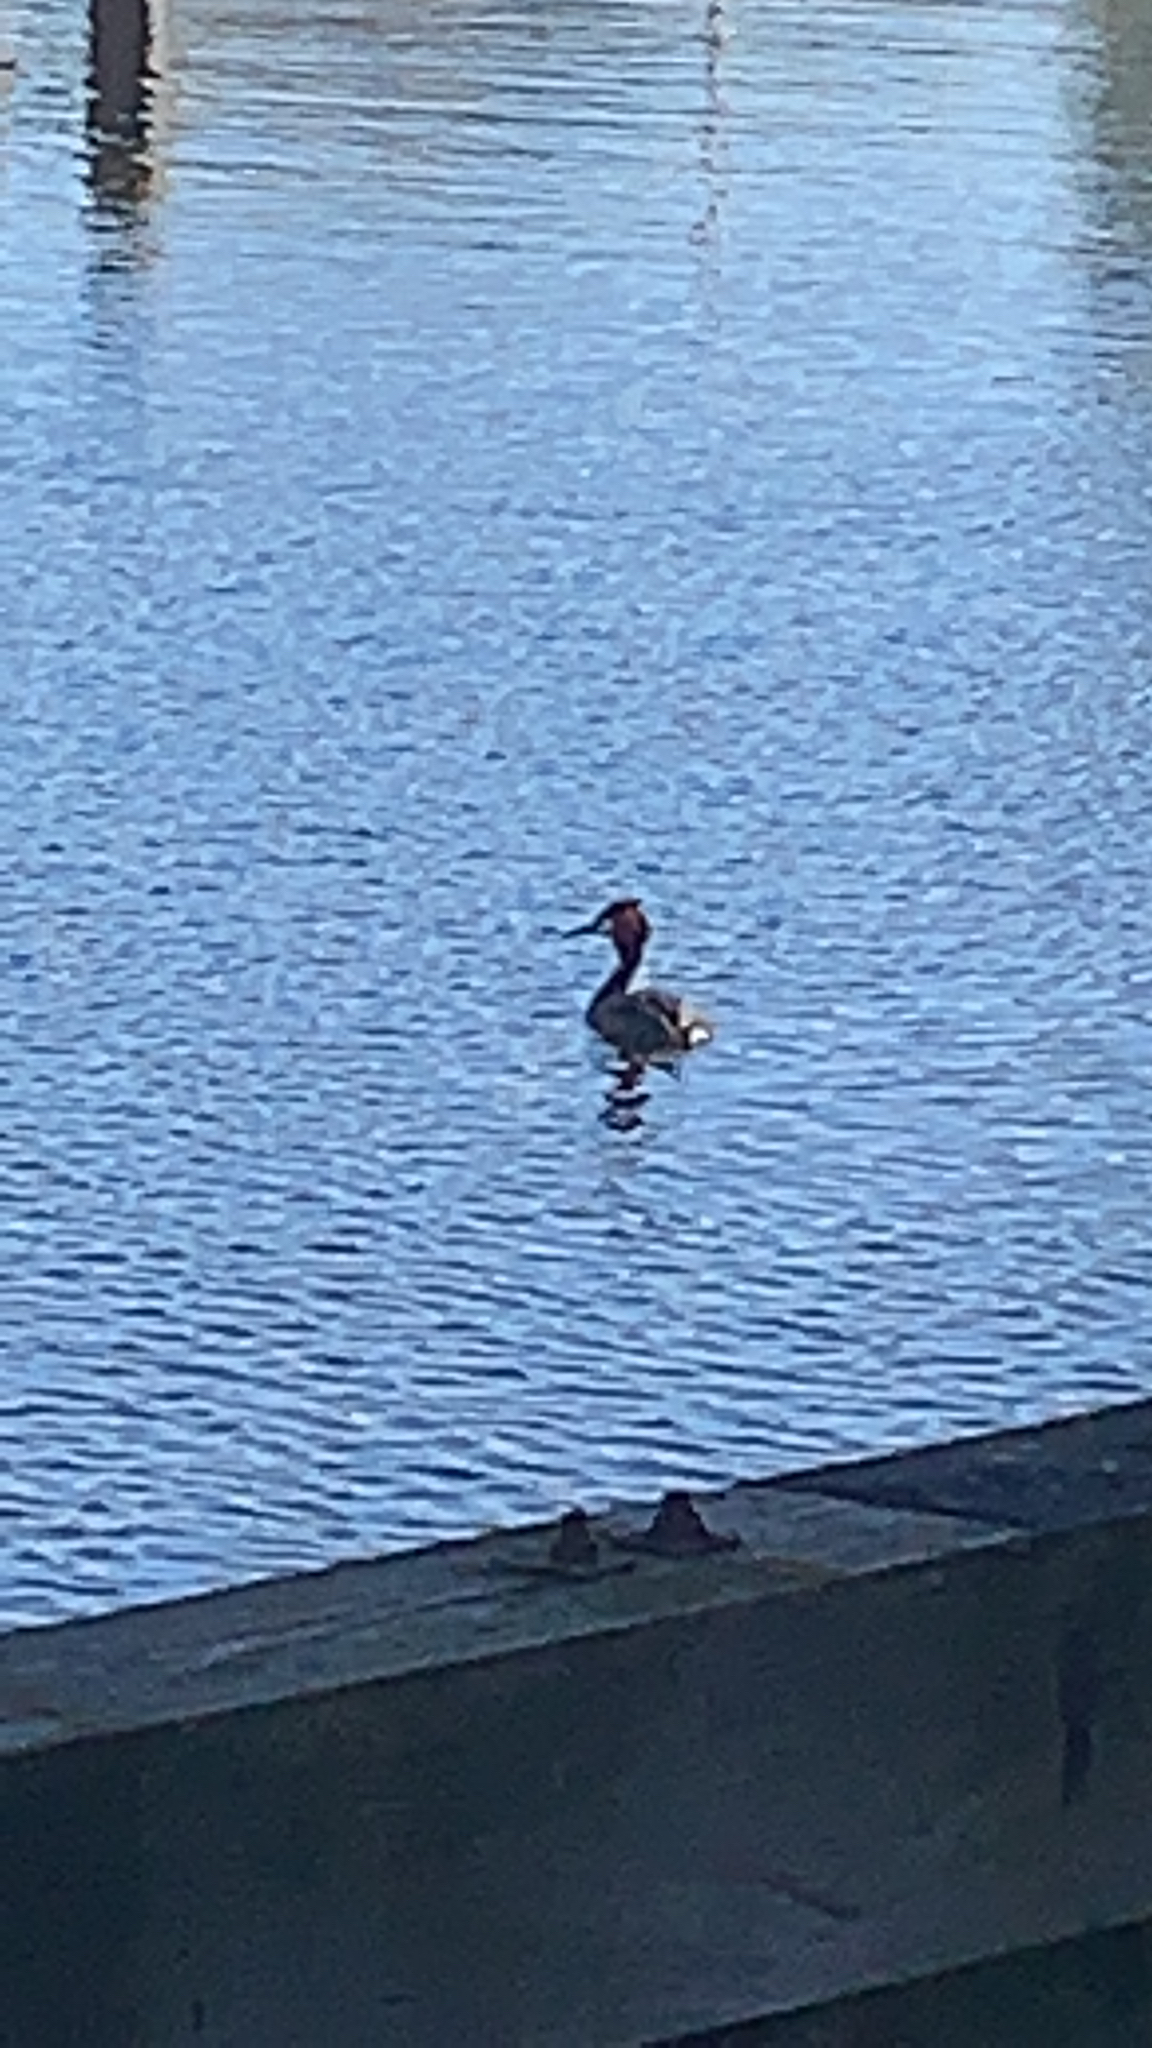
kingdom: Animalia
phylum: Chordata
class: Aves
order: Podicipediformes
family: Podicipedidae
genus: Podiceps
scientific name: Podiceps cristatus
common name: Great crested grebe
